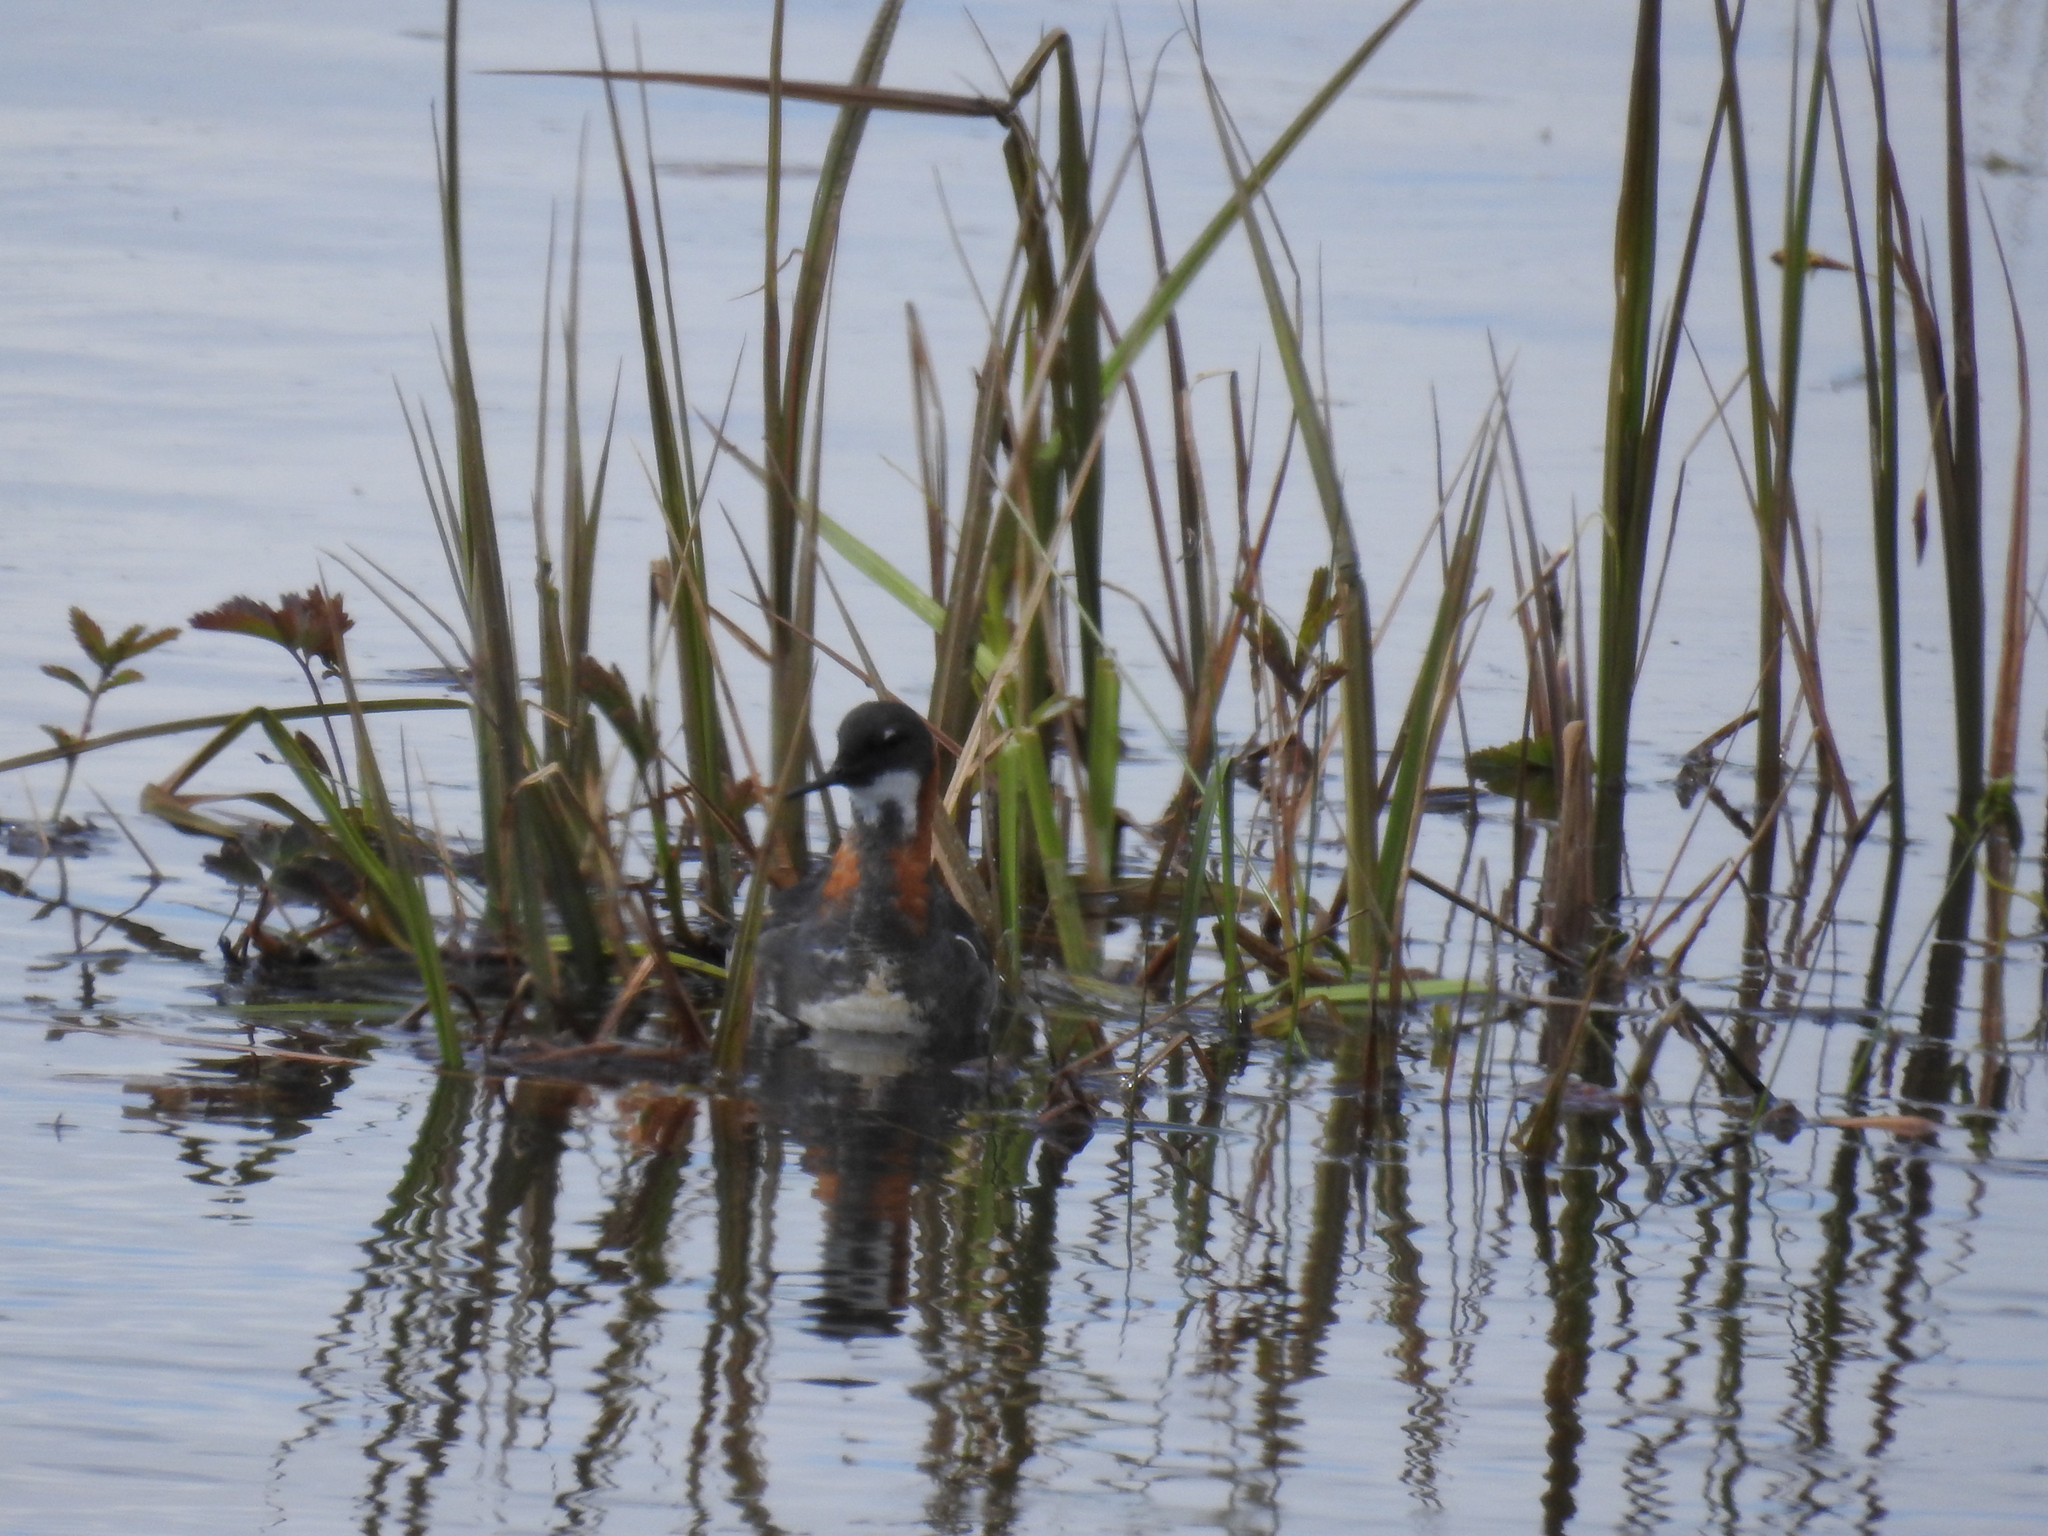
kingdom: Animalia
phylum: Chordata
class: Aves
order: Charadriiformes
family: Scolopacidae
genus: Phalaropus
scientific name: Phalaropus lobatus
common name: Red-necked phalarope
